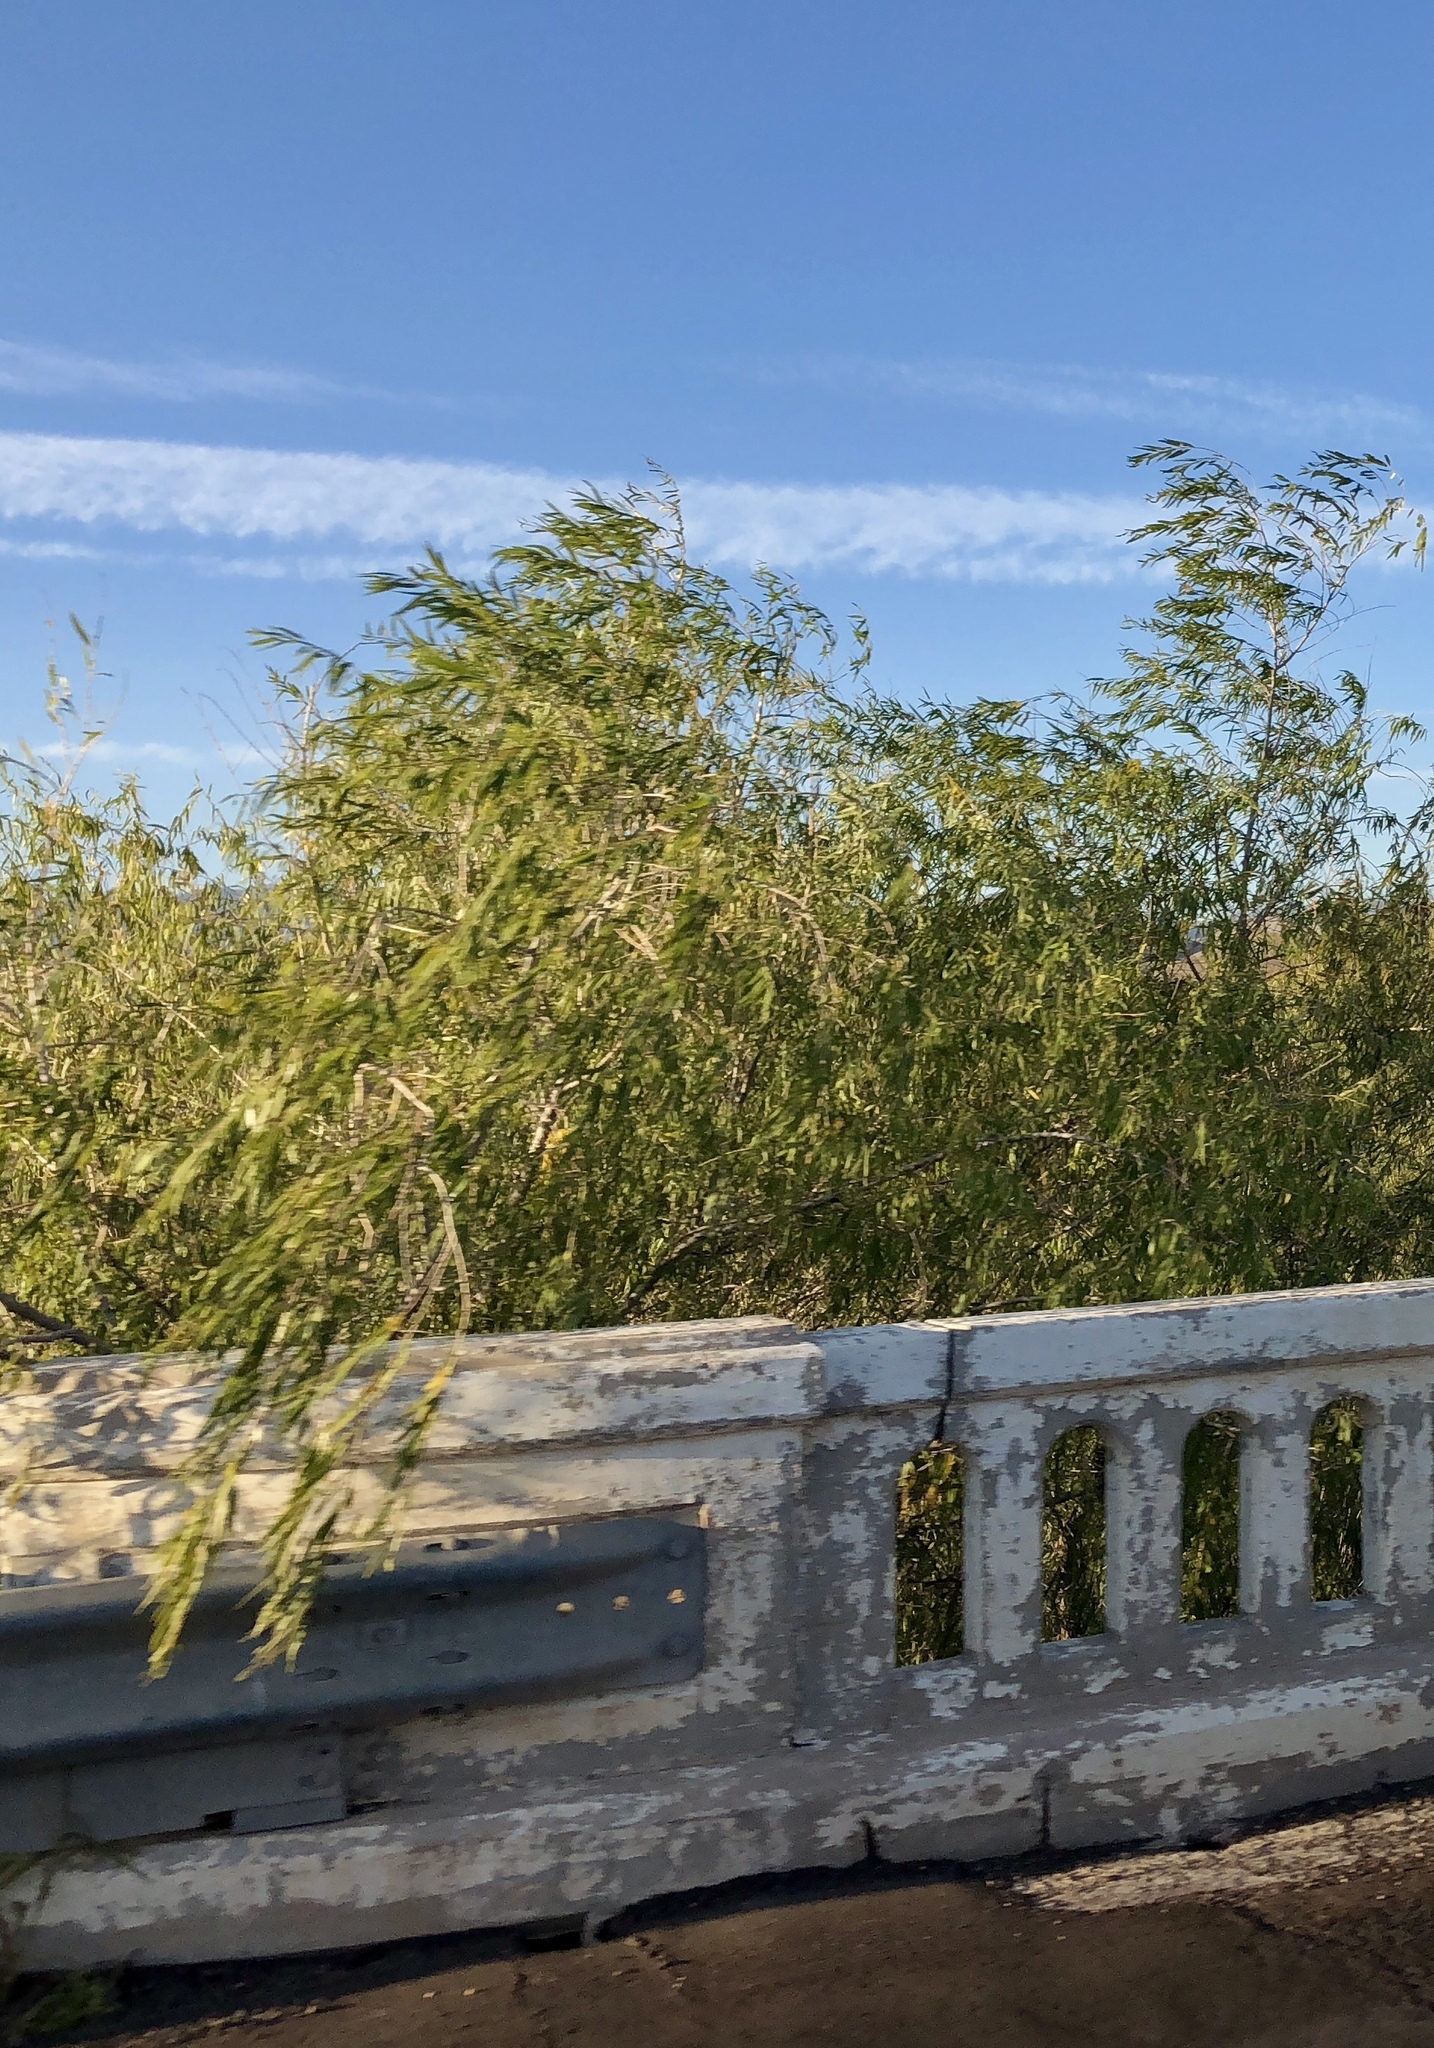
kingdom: Plantae
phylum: Tracheophyta
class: Magnoliopsida
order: Lamiales
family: Bignoniaceae
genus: Chilopsis
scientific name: Chilopsis linearis
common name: Desert-willow
